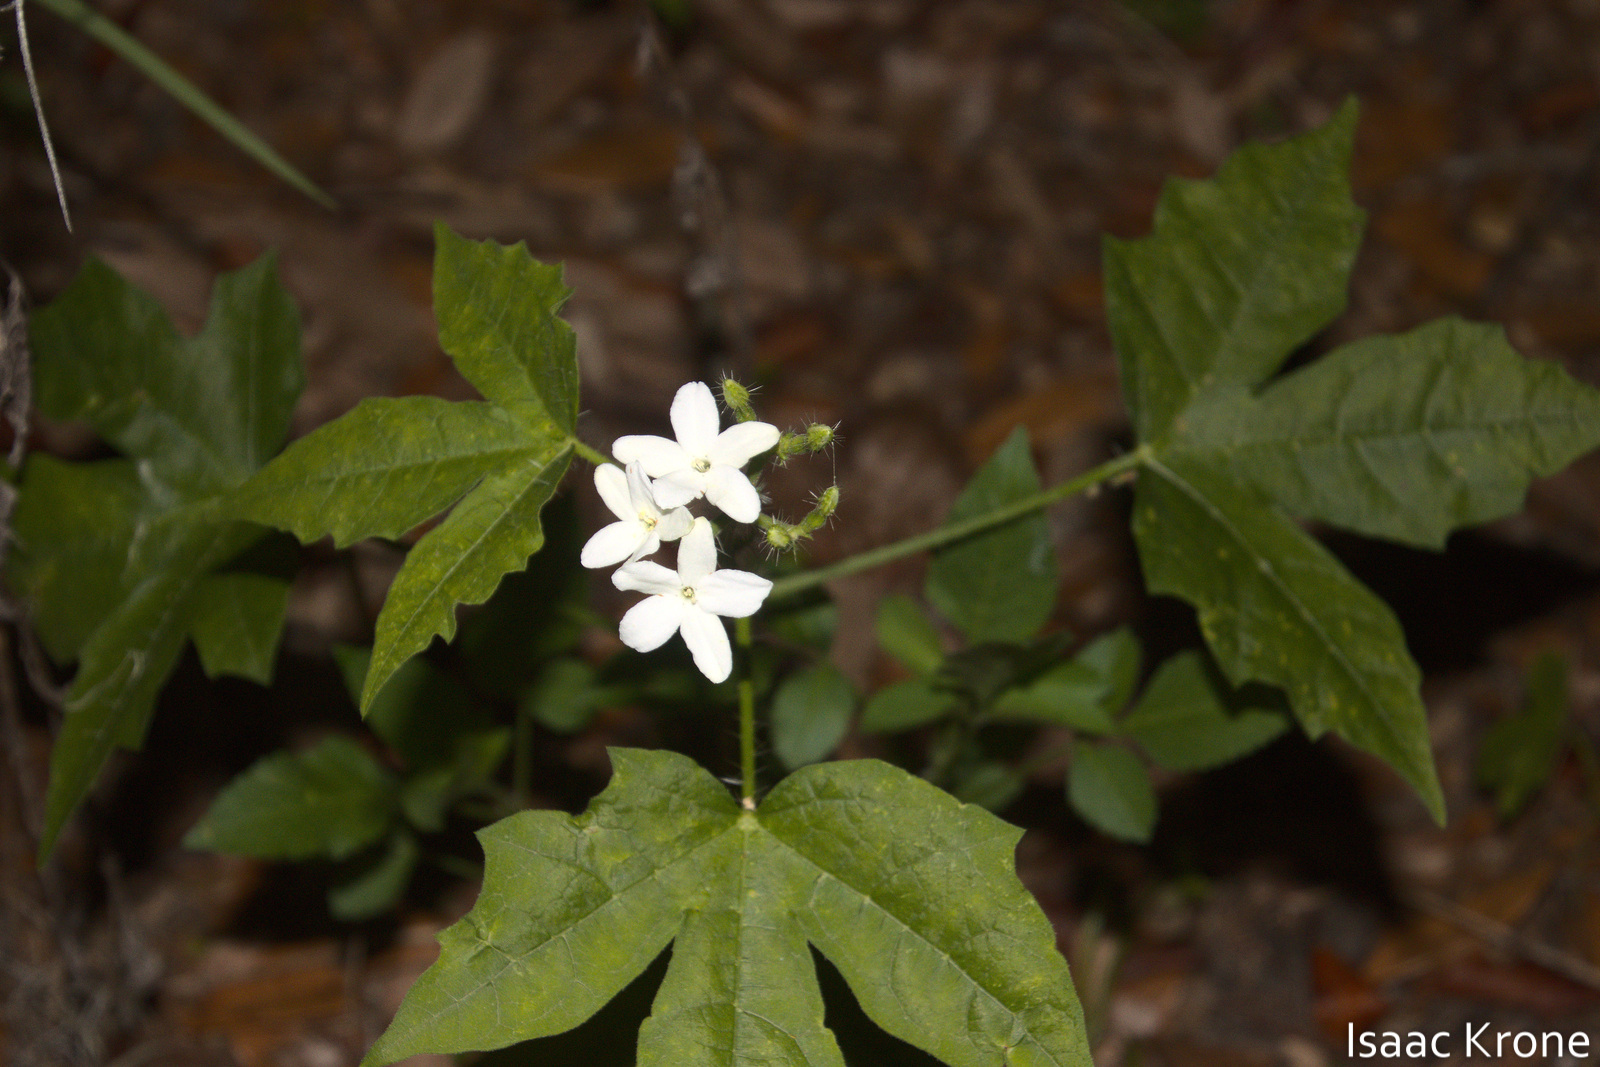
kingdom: Plantae
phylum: Tracheophyta
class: Magnoliopsida
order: Malpighiales
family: Euphorbiaceae
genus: Cnidoscolus
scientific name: Cnidoscolus stimulosus
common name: Bull-nettle
